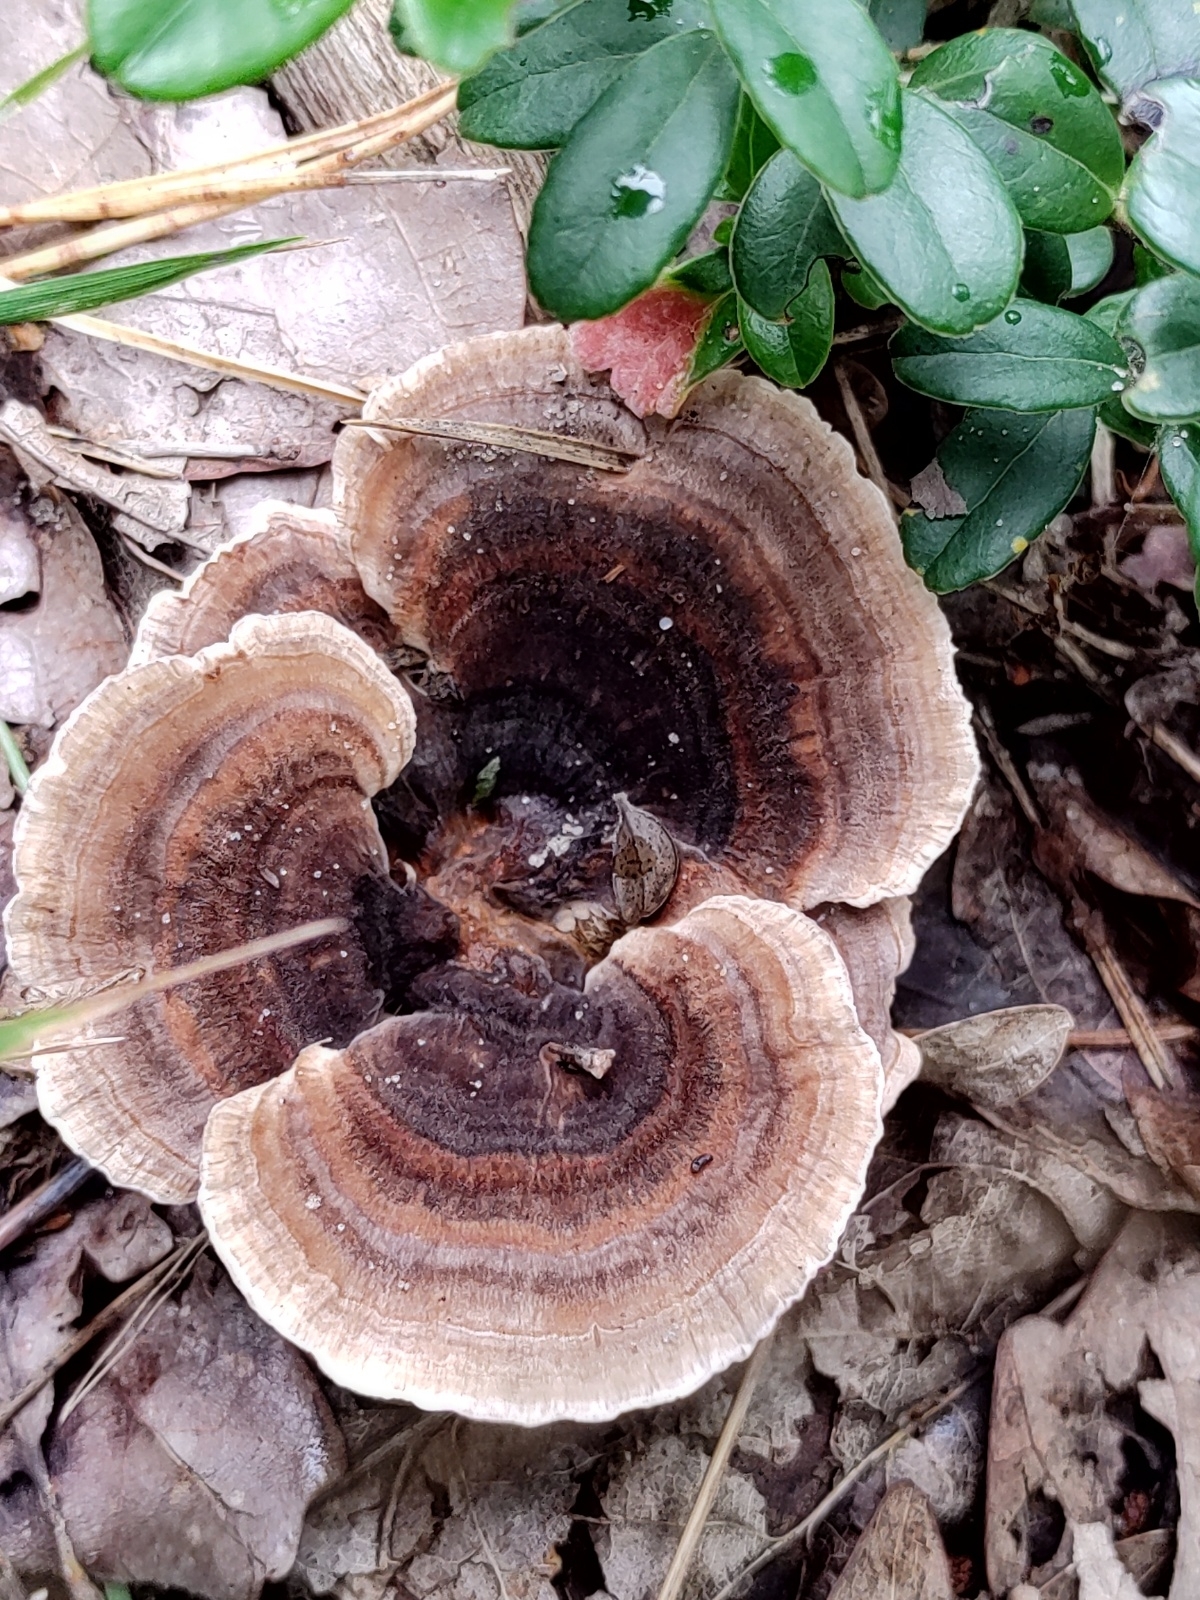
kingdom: Fungi
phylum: Basidiomycota
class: Agaricomycetes
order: Polyporales
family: Polyporaceae
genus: Trametes
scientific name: Trametes versicolor
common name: Turkeytail
